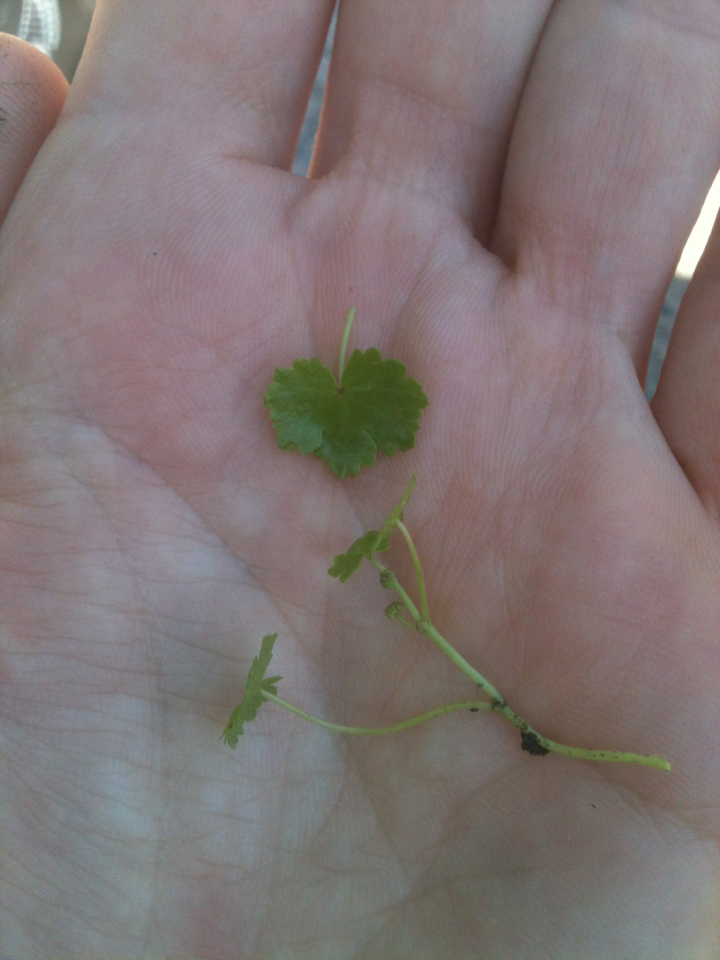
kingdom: Plantae
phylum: Tracheophyta
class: Magnoliopsida
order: Apiales
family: Araliaceae
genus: Hydrocotyle
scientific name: Hydrocotyle sibthorpioides
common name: Lawn marshpennywort
